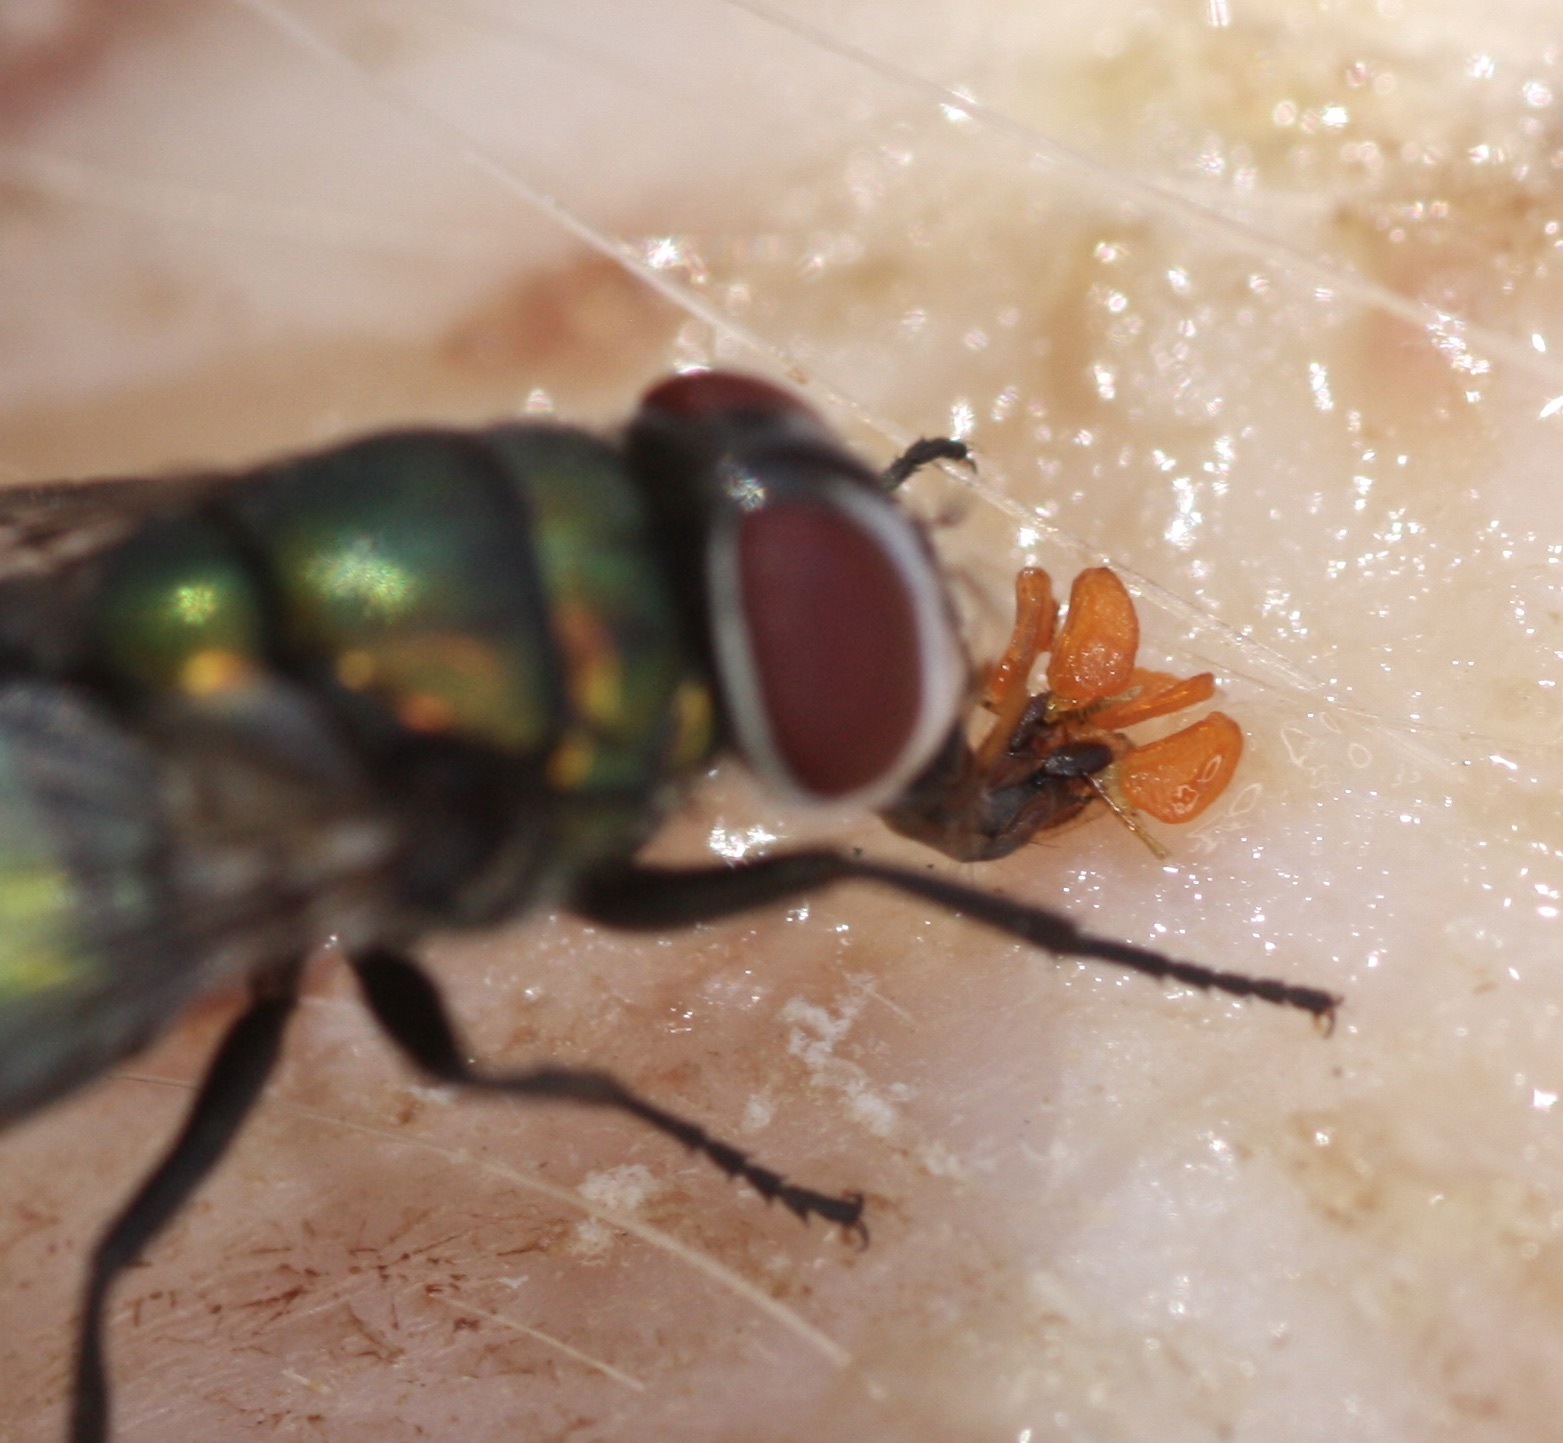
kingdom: Animalia
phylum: Arthropoda
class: Insecta
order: Diptera
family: Calliphoridae
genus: Chrysomya
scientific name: Chrysomya rufifacies
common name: Blow fly
